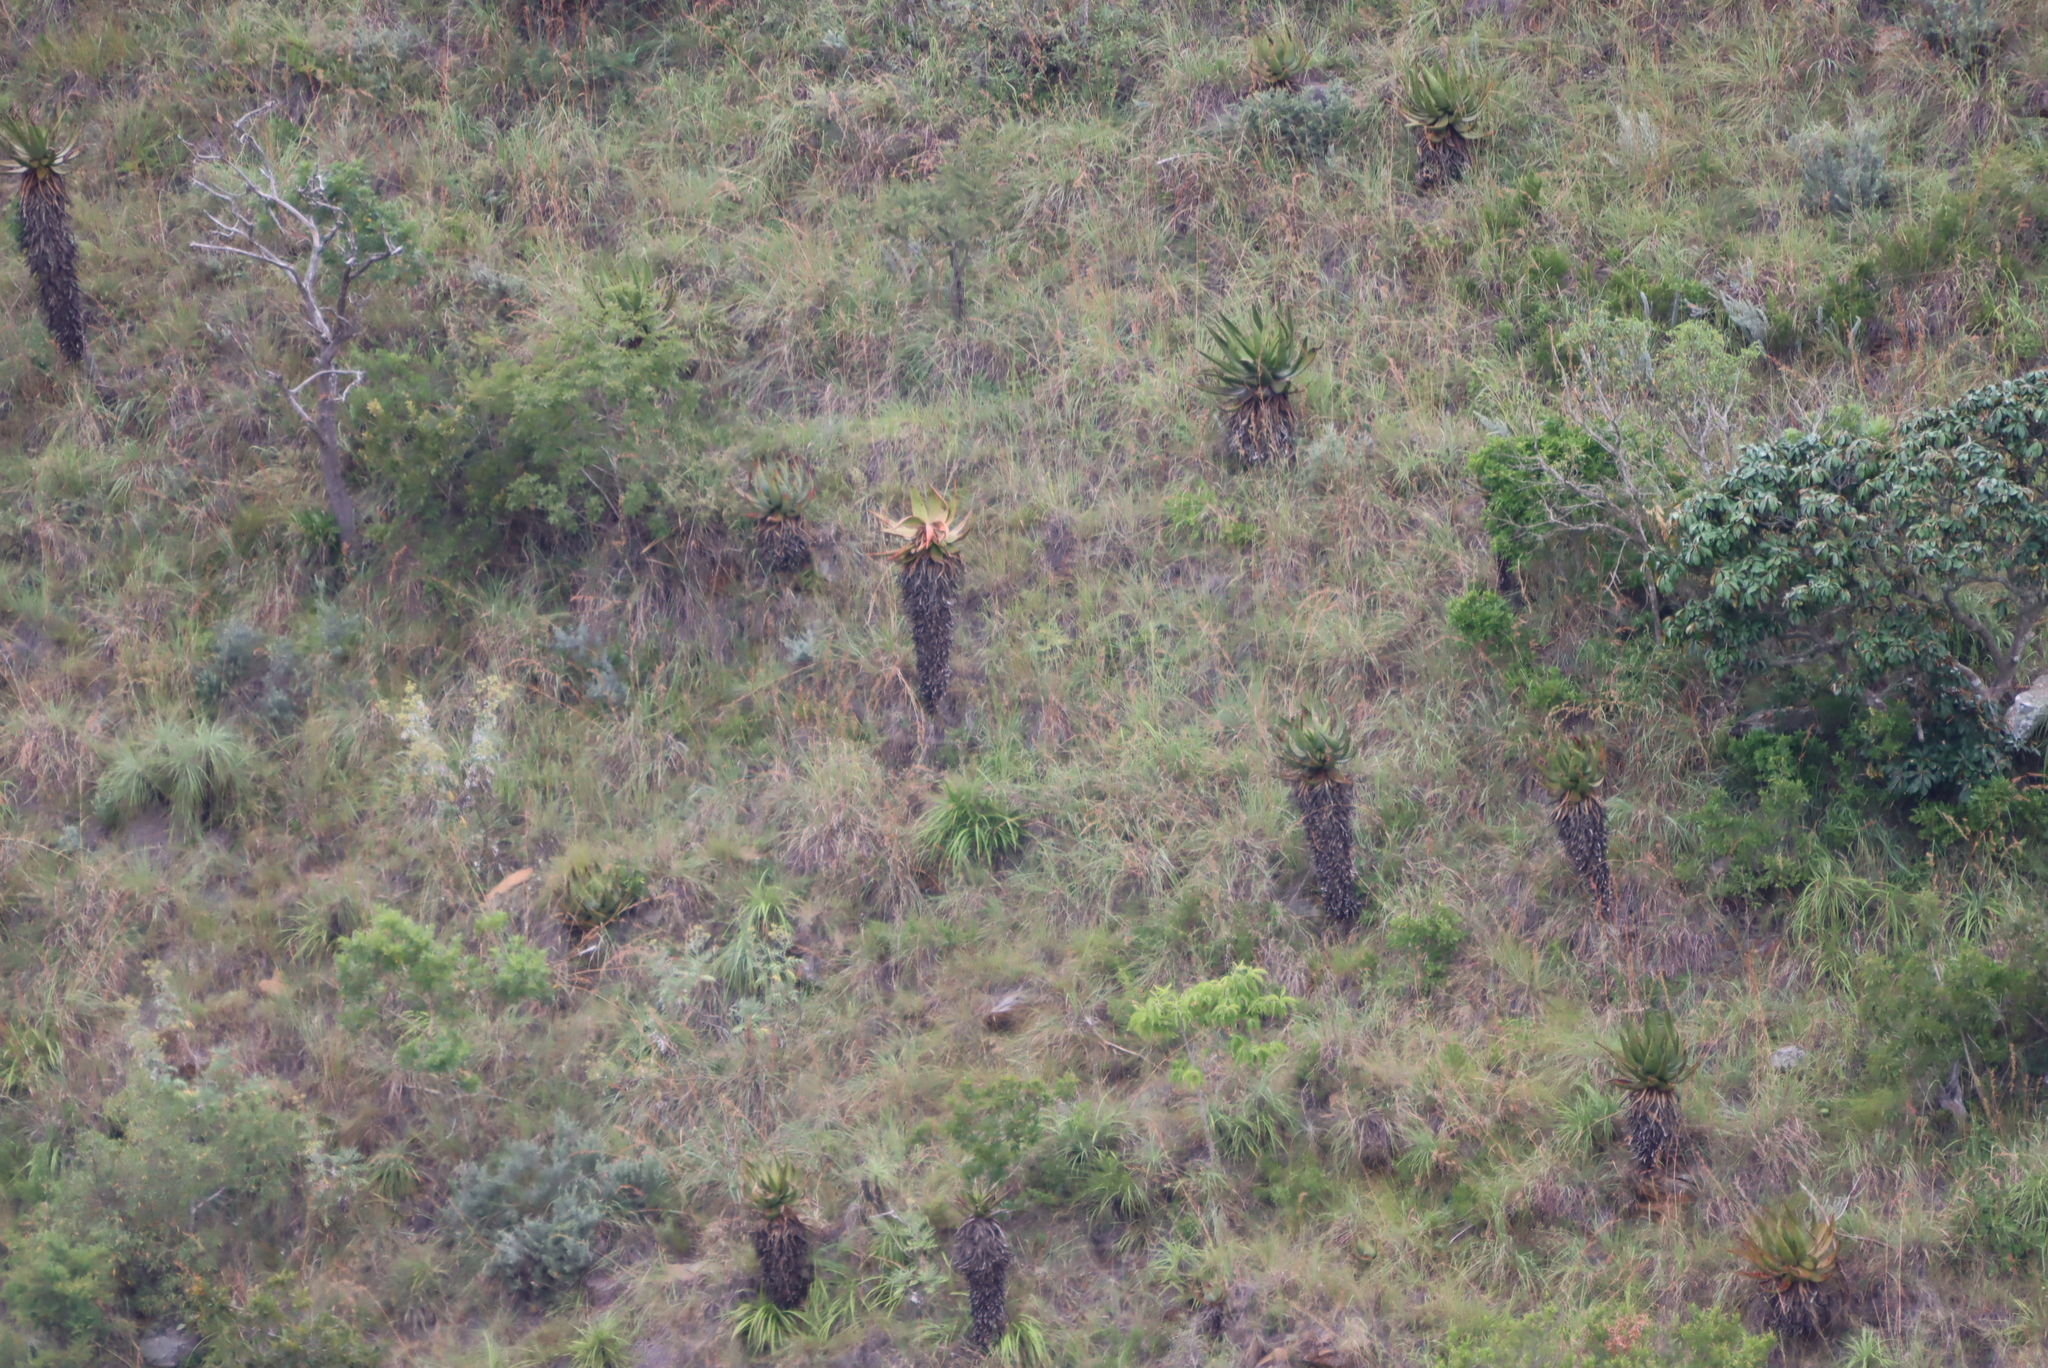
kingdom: Plantae
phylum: Tracheophyta
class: Liliopsida
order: Asparagales
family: Asphodelaceae
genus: Aloe
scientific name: Aloe marlothii
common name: Flat-flowered aloe
